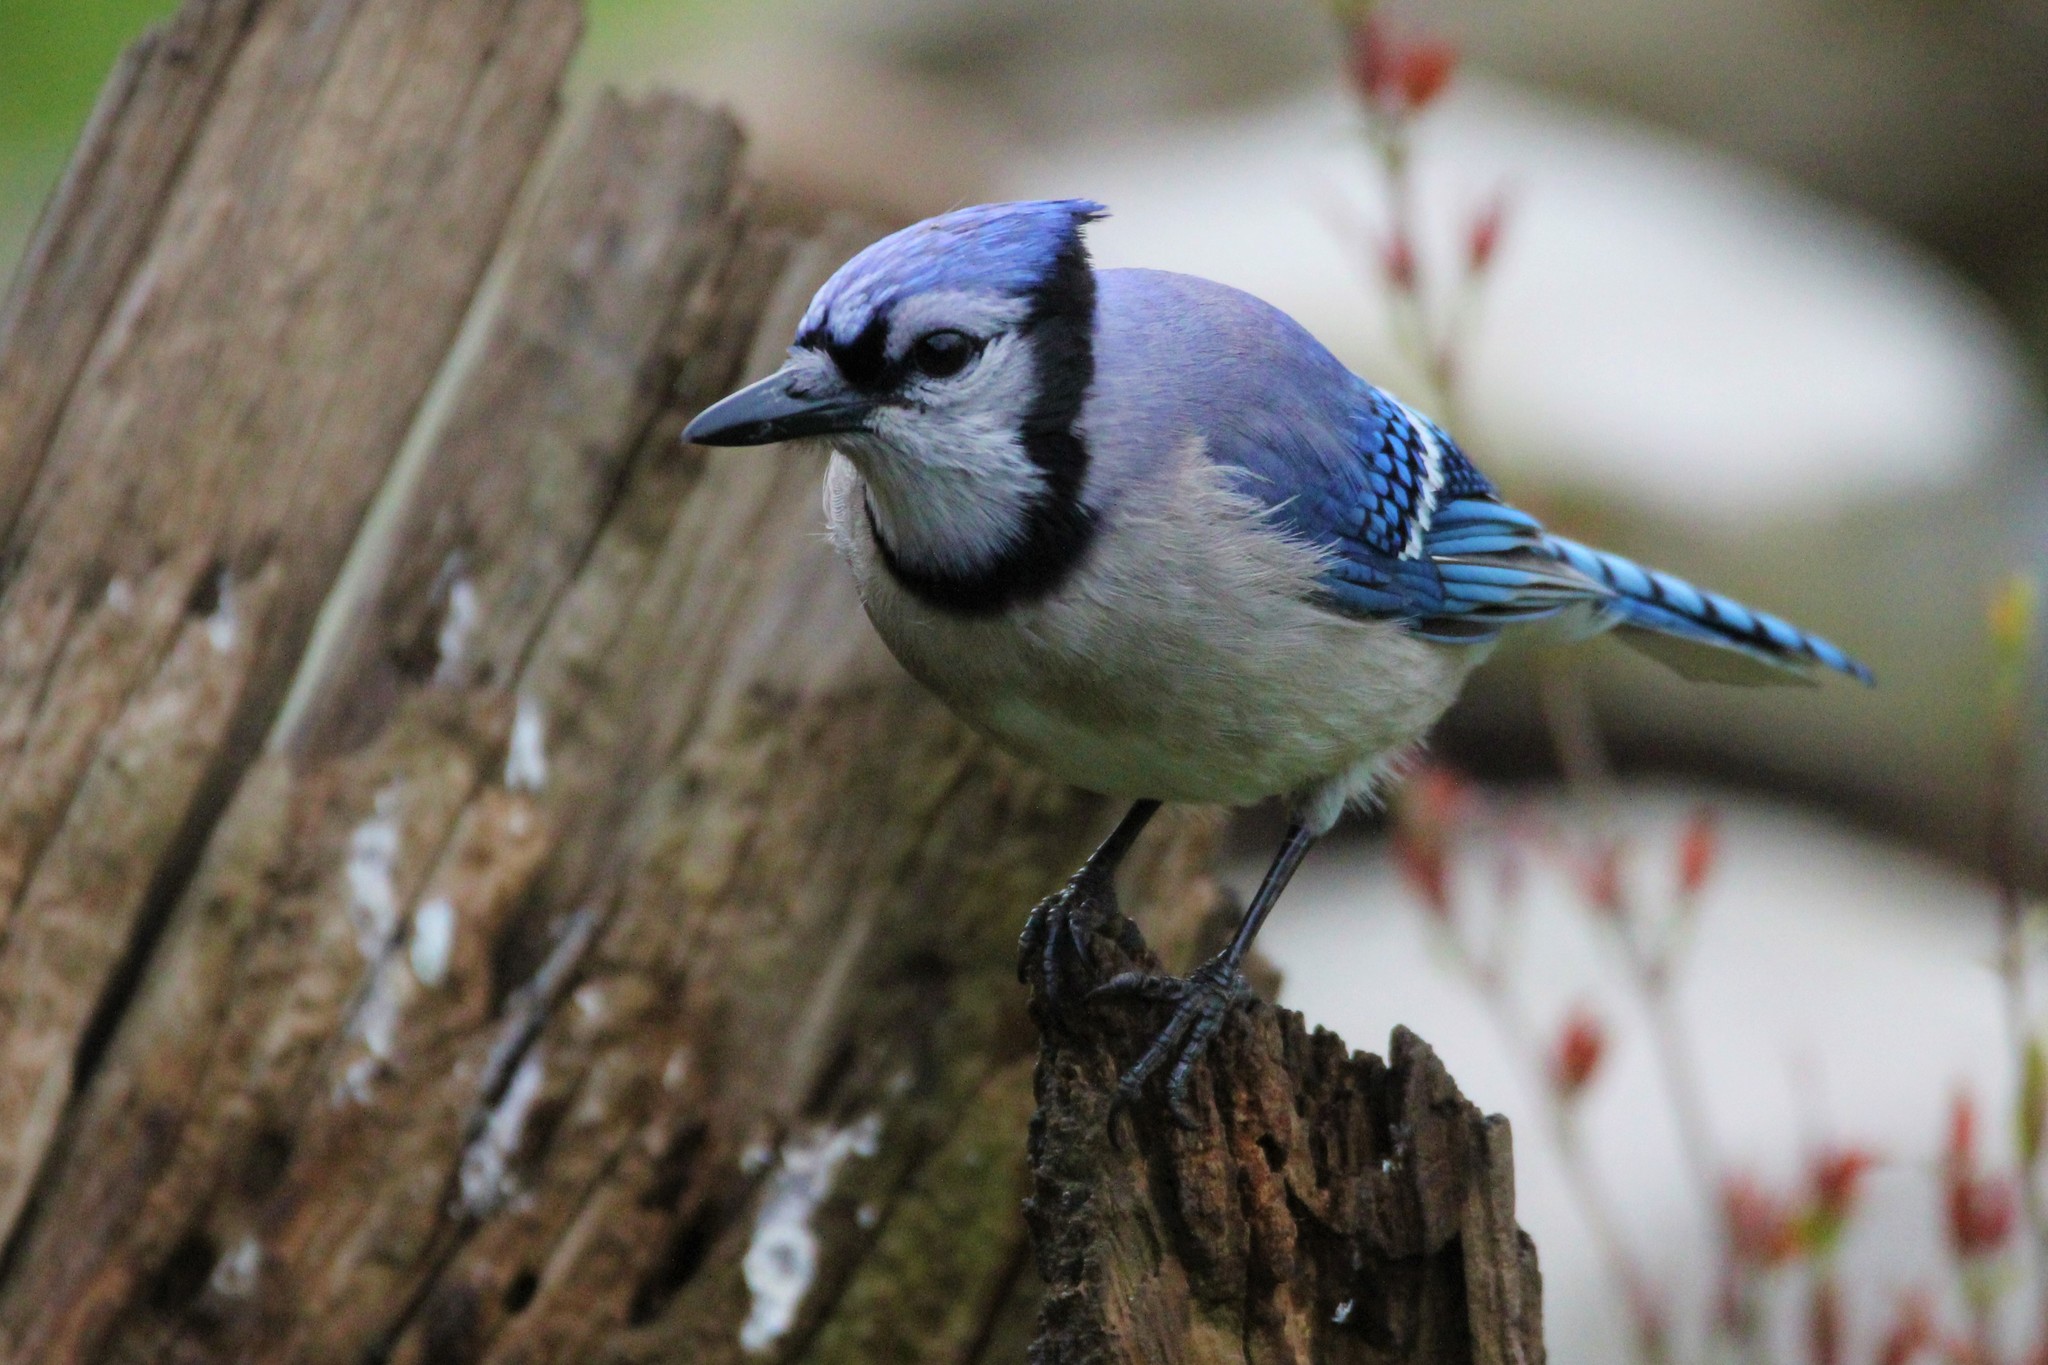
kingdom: Animalia
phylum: Chordata
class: Aves
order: Passeriformes
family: Corvidae
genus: Cyanocitta
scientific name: Cyanocitta cristata
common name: Blue jay
